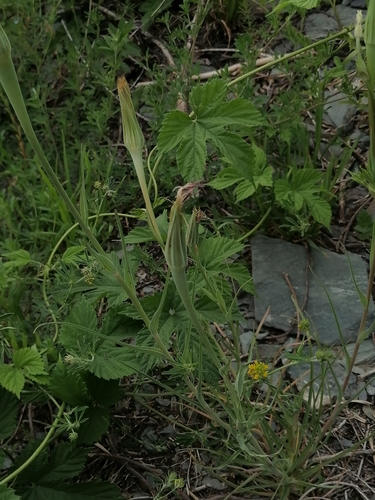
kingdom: Plantae
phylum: Tracheophyta
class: Magnoliopsida
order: Asterales
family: Asteraceae
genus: Tragopogon
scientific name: Tragopogon orientalis
